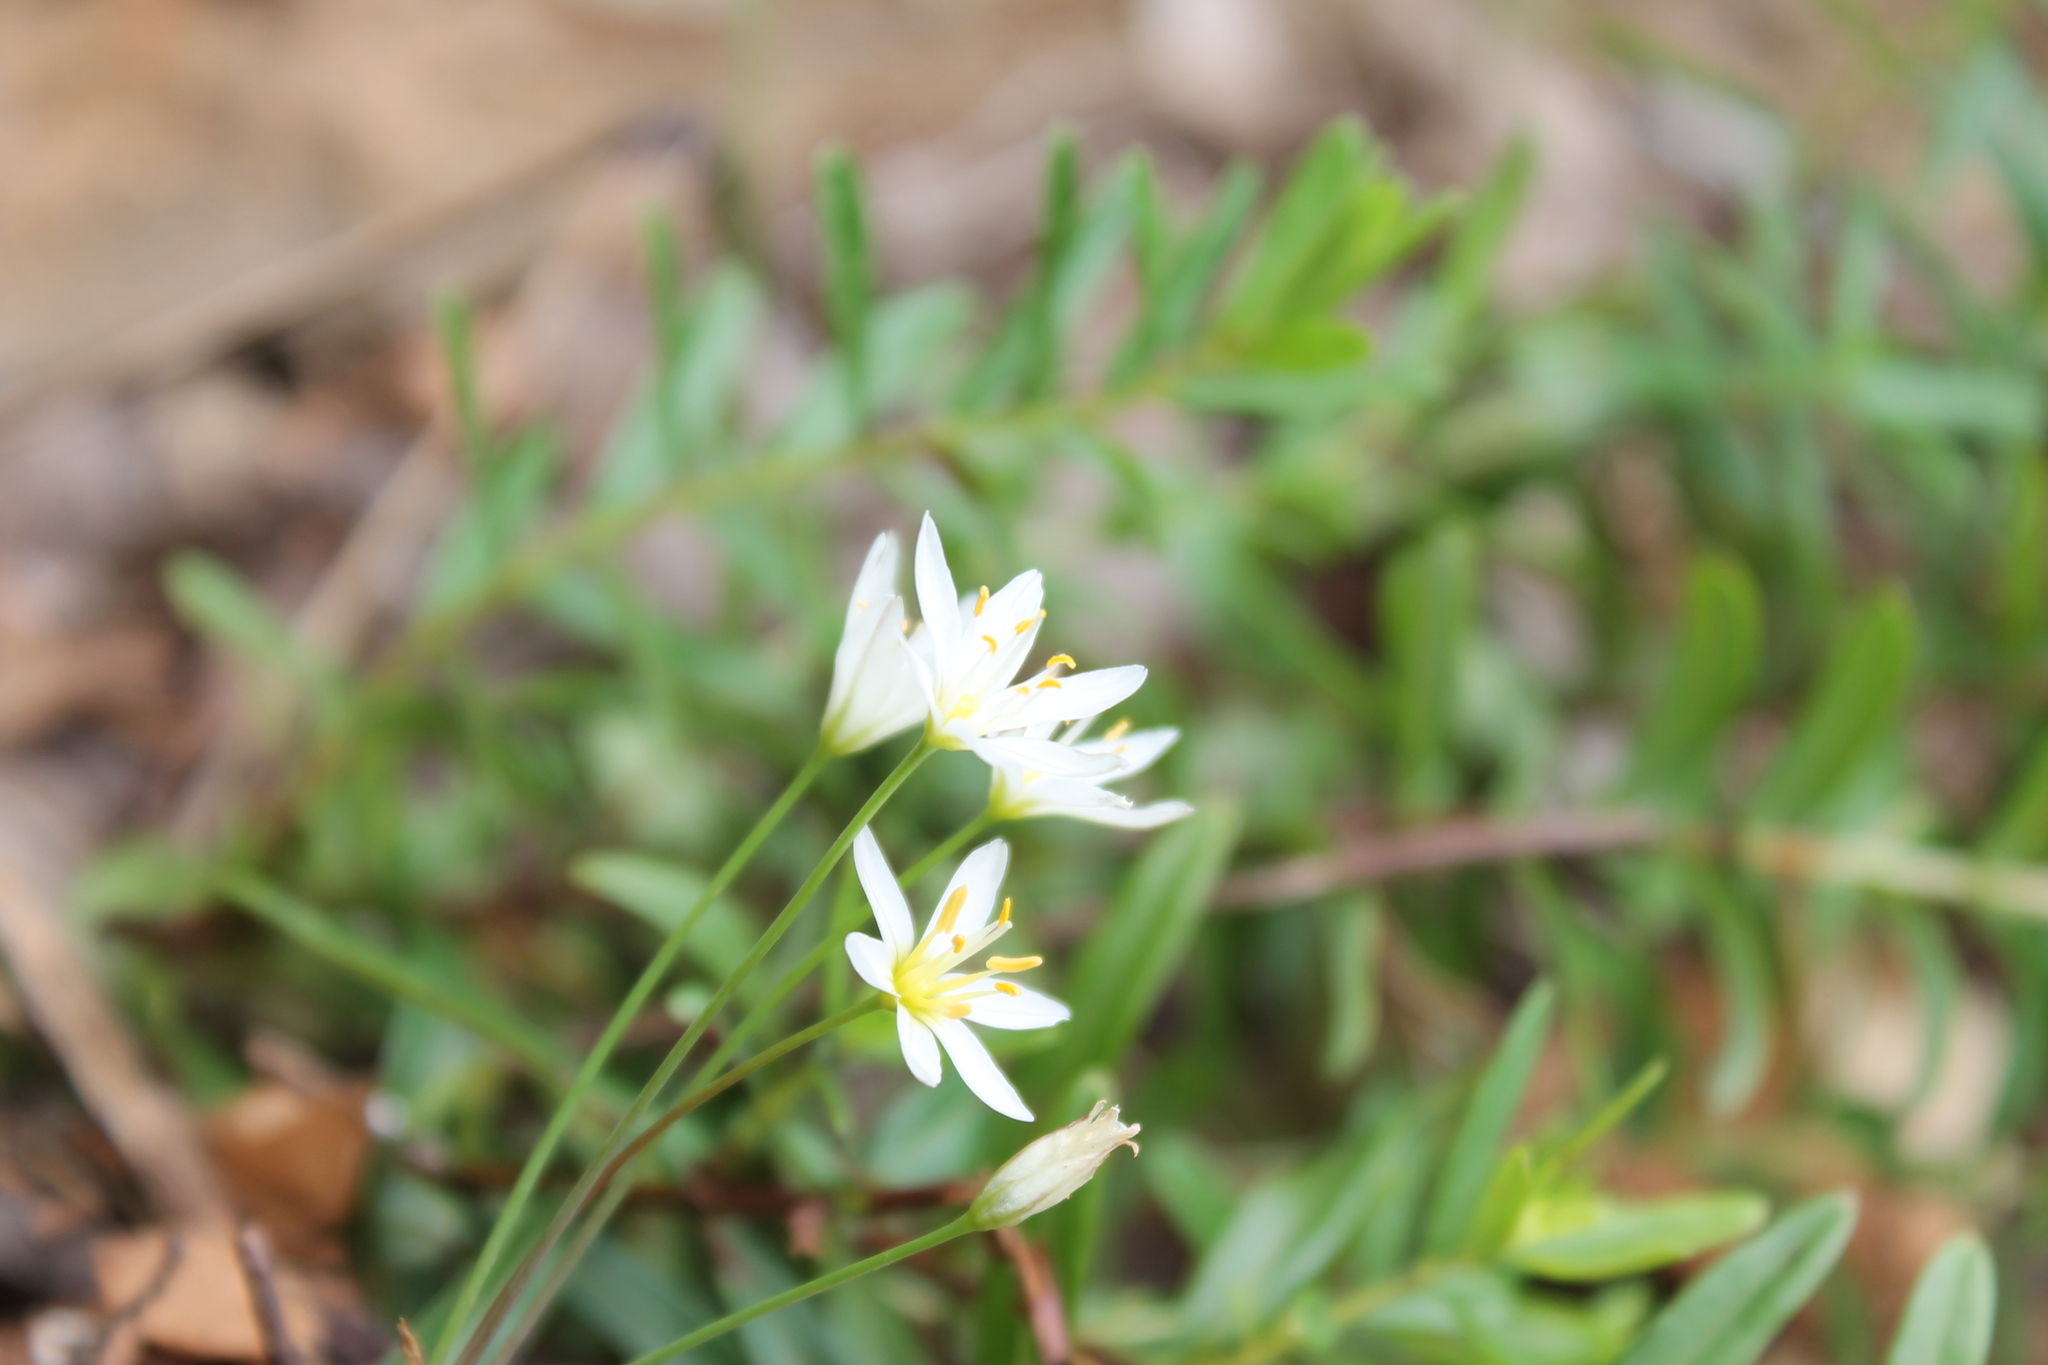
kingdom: Plantae
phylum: Tracheophyta
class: Liliopsida
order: Asparagales
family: Amaryllidaceae
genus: Nothoscordum
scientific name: Nothoscordum bivalve
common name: Crow-poison
